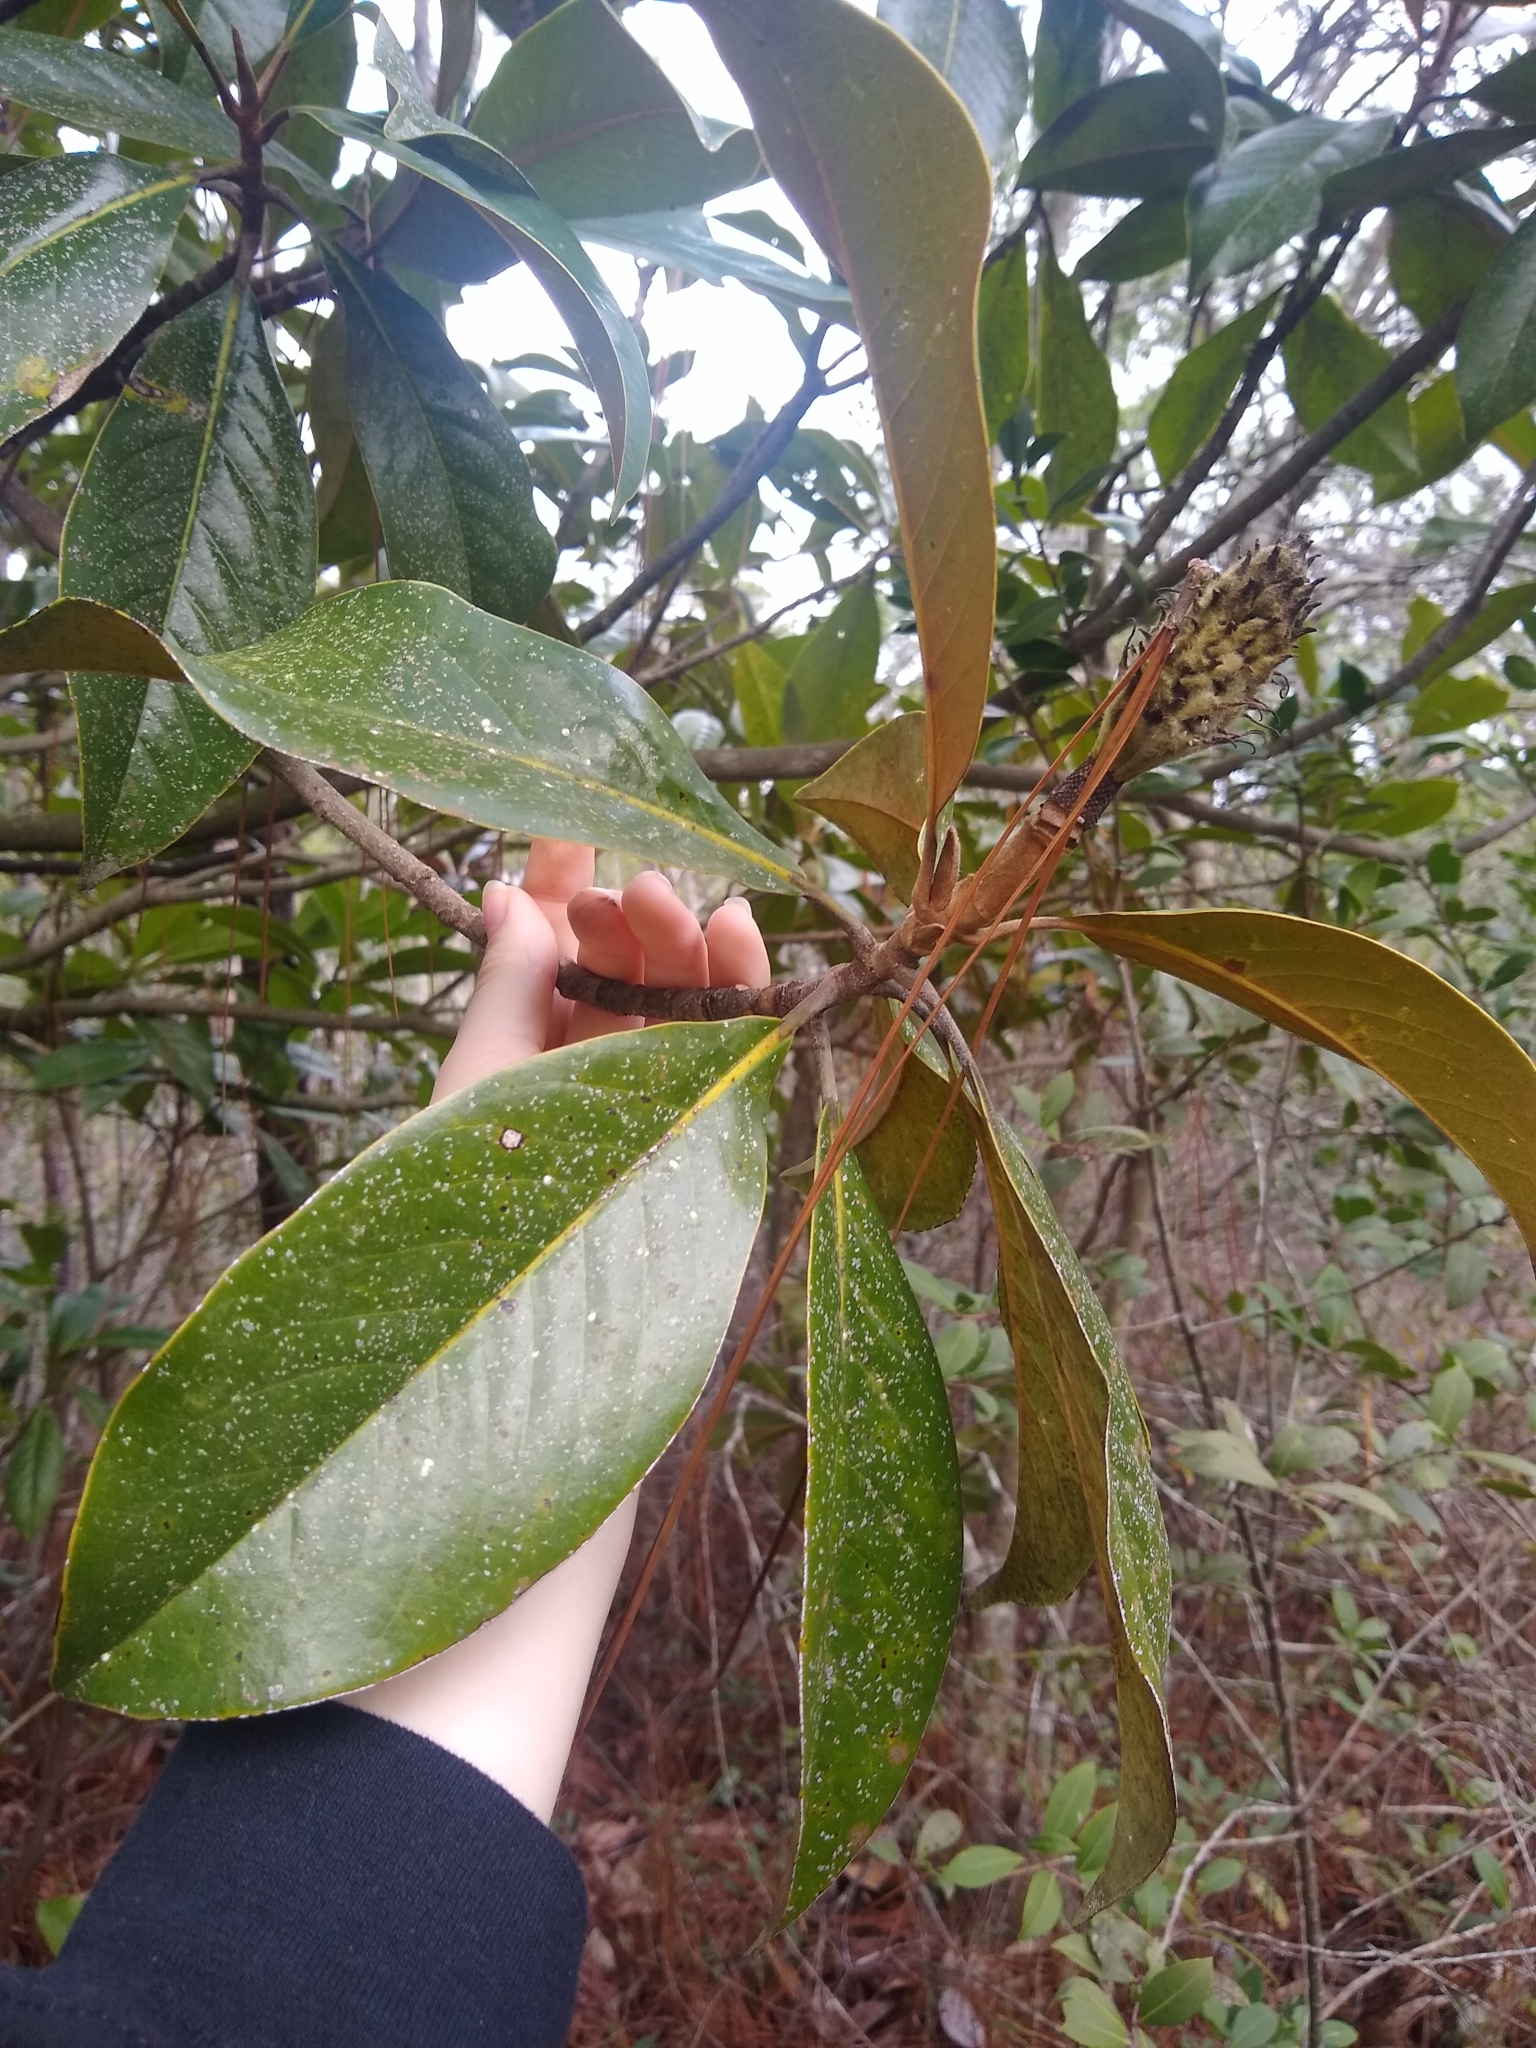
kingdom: Plantae
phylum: Tracheophyta
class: Magnoliopsida
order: Magnoliales
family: Magnoliaceae
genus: Magnolia
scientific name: Magnolia grandiflora
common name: Southern magnolia
